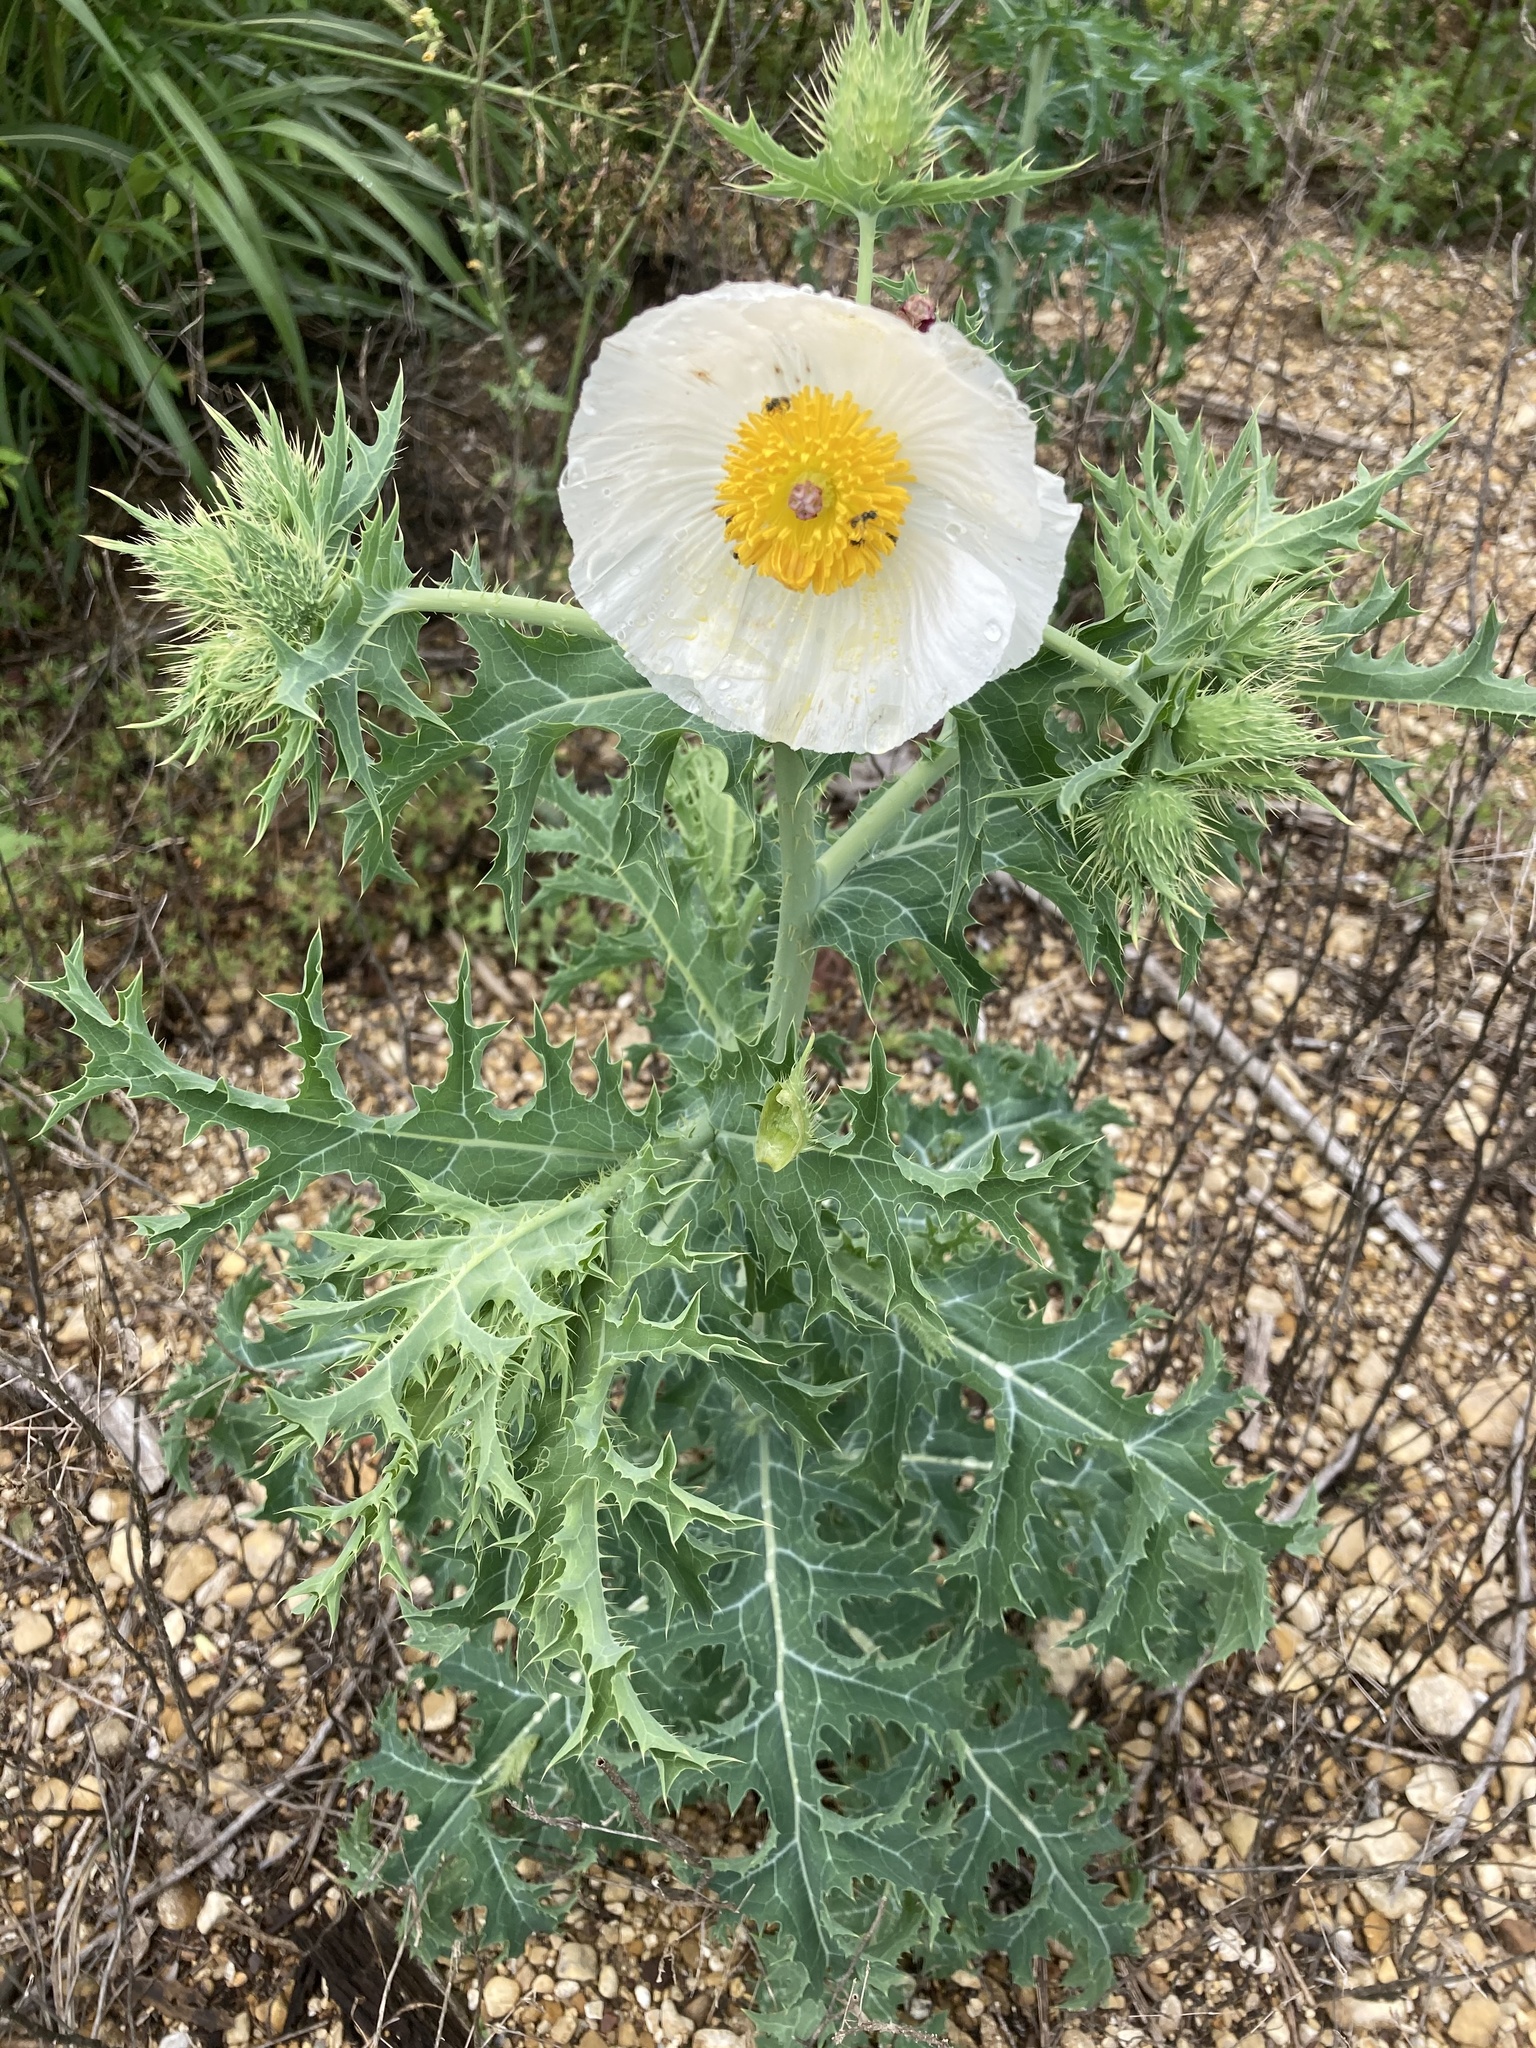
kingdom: Plantae
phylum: Tracheophyta
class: Magnoliopsida
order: Ranunculales
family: Papaveraceae
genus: Argemone
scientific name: Argemone albiflora
